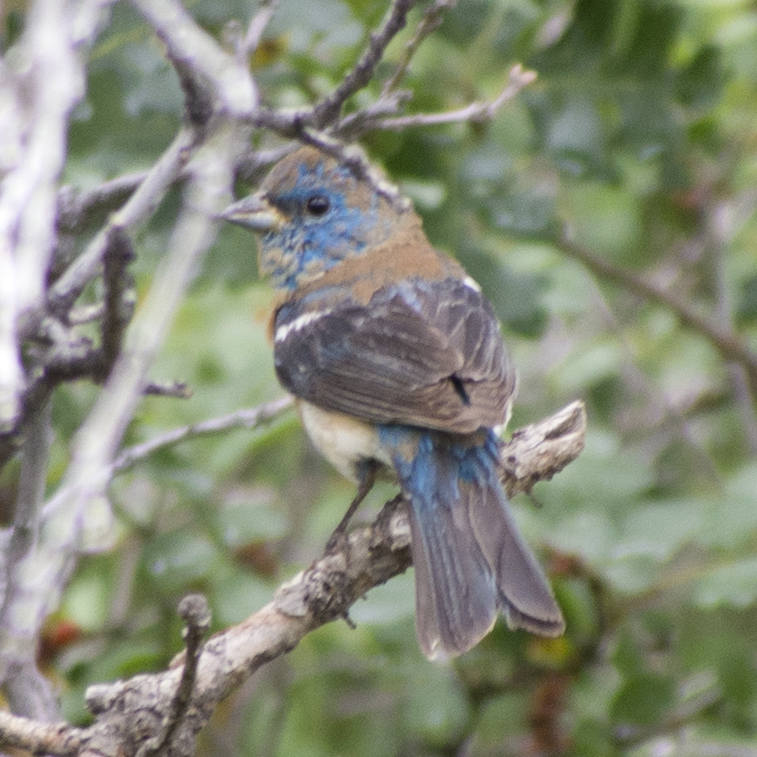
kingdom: Animalia
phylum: Chordata
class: Aves
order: Passeriformes
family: Cardinalidae
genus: Passerina
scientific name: Passerina amoena
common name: Lazuli bunting
